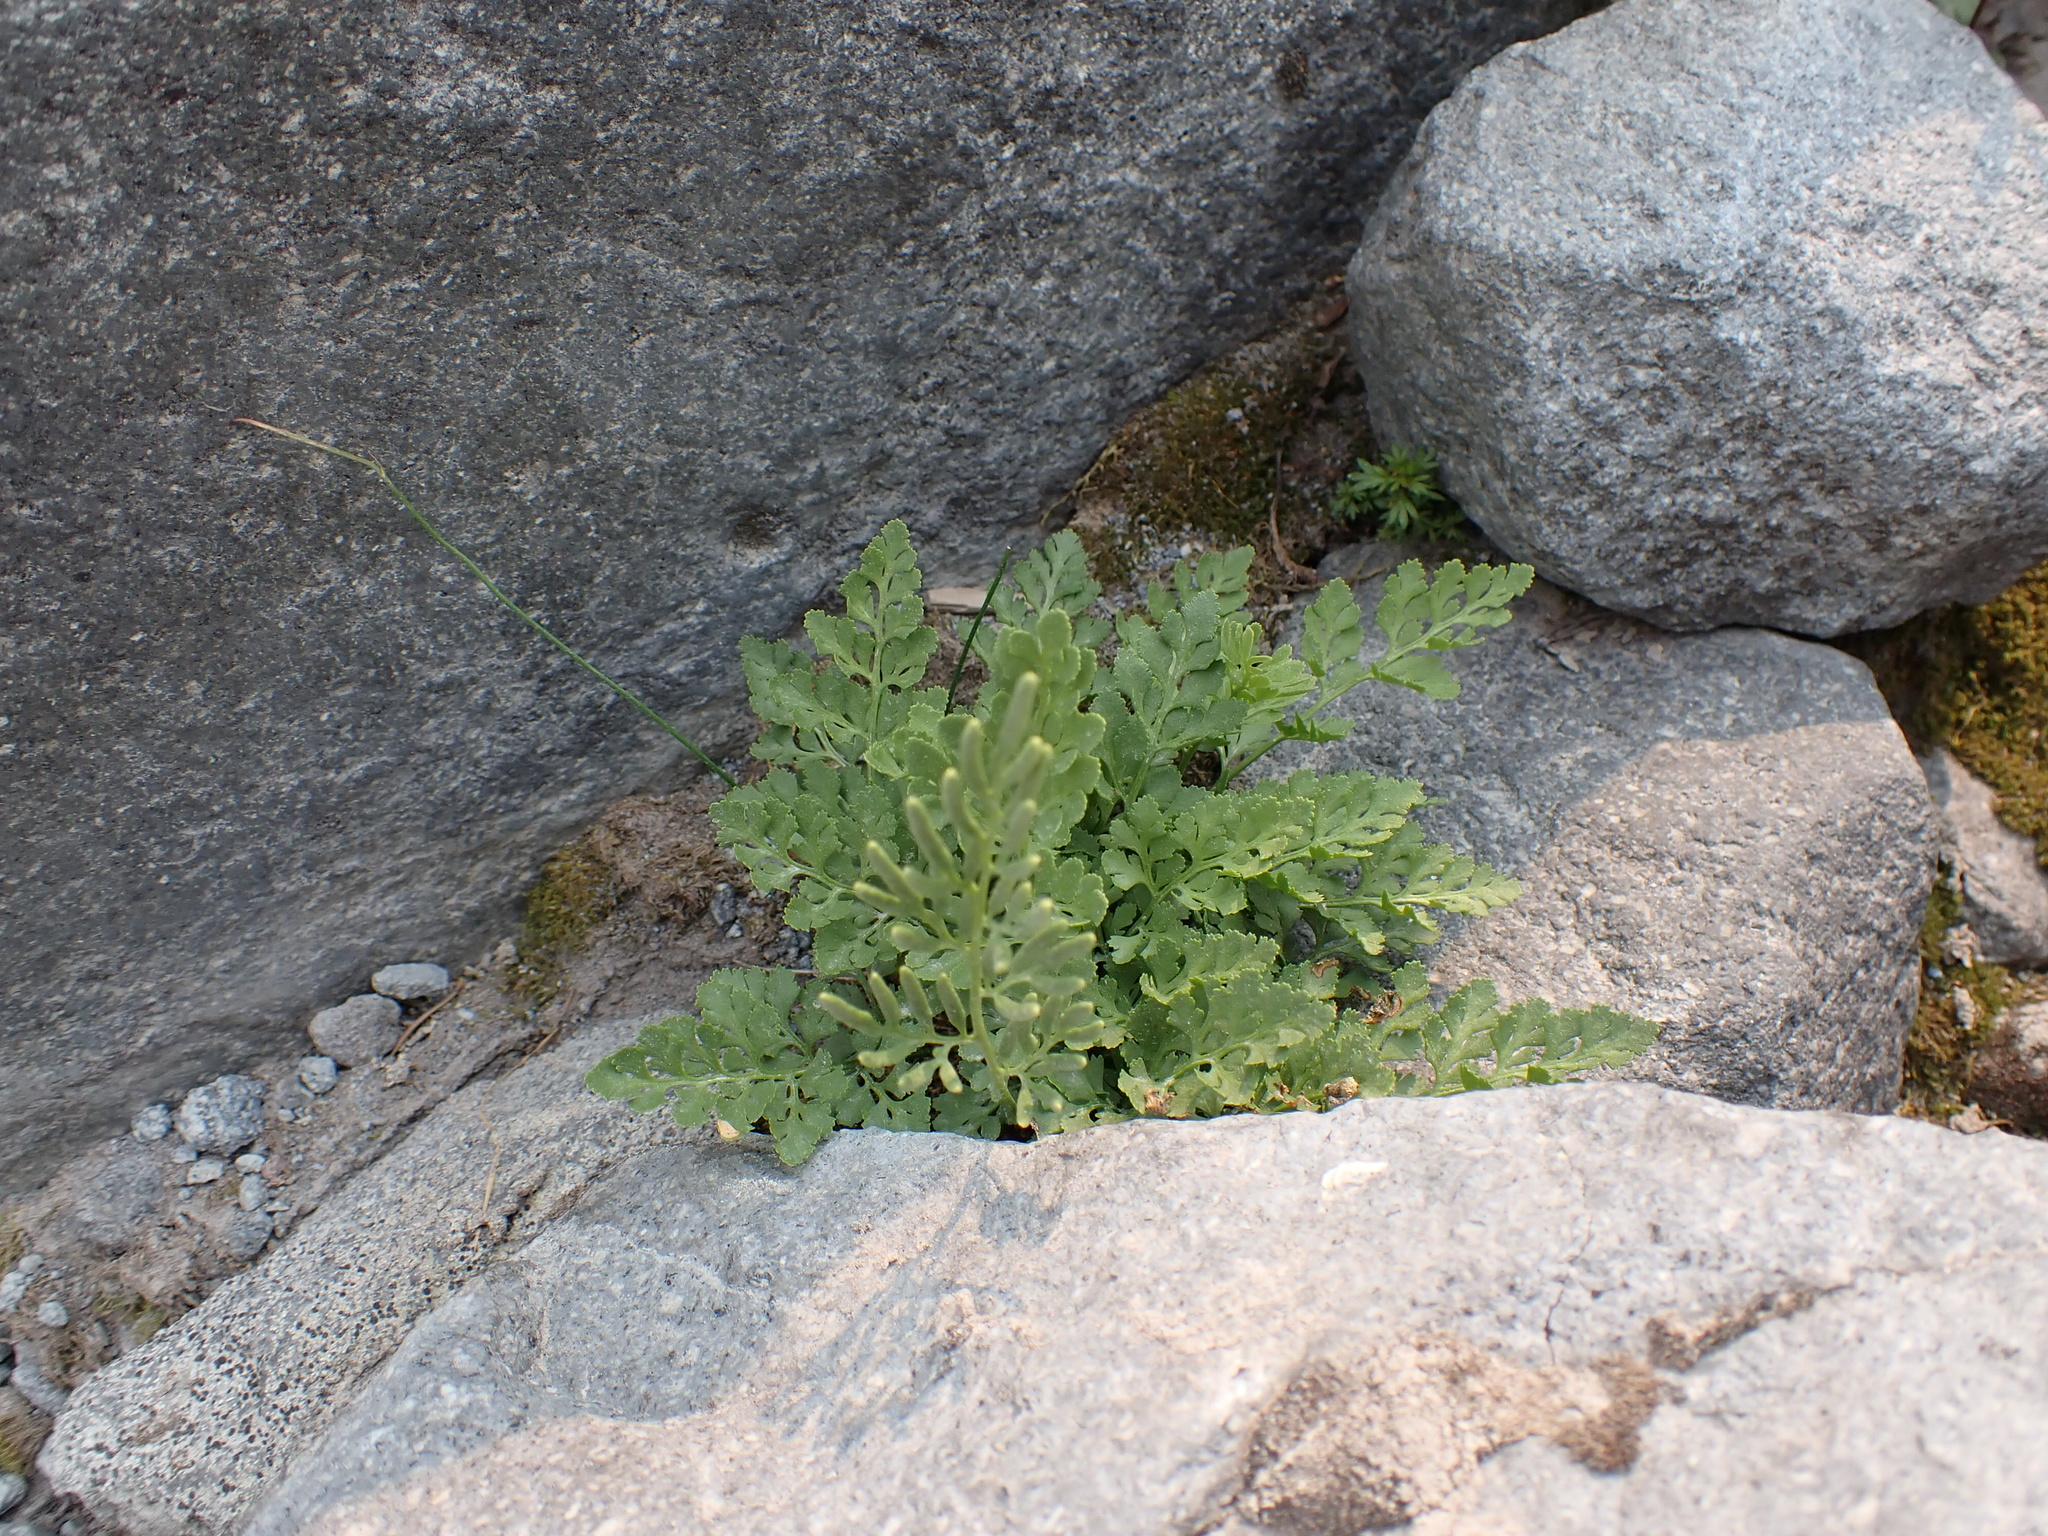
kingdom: Plantae
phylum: Tracheophyta
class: Polypodiopsida
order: Polypodiales
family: Pteridaceae
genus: Cryptogramma
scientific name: Cryptogramma acrostichoides
